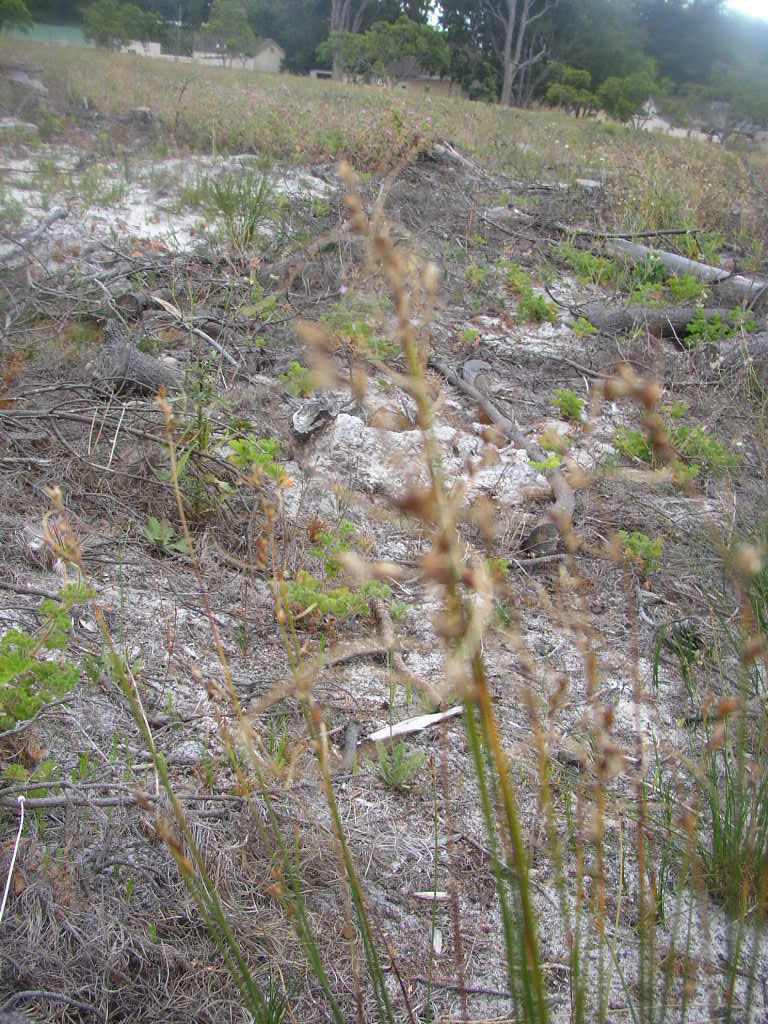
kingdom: Plantae
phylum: Tracheophyta
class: Liliopsida
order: Poales
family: Cyperaceae
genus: Ficinia
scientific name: Ficinia secunda
